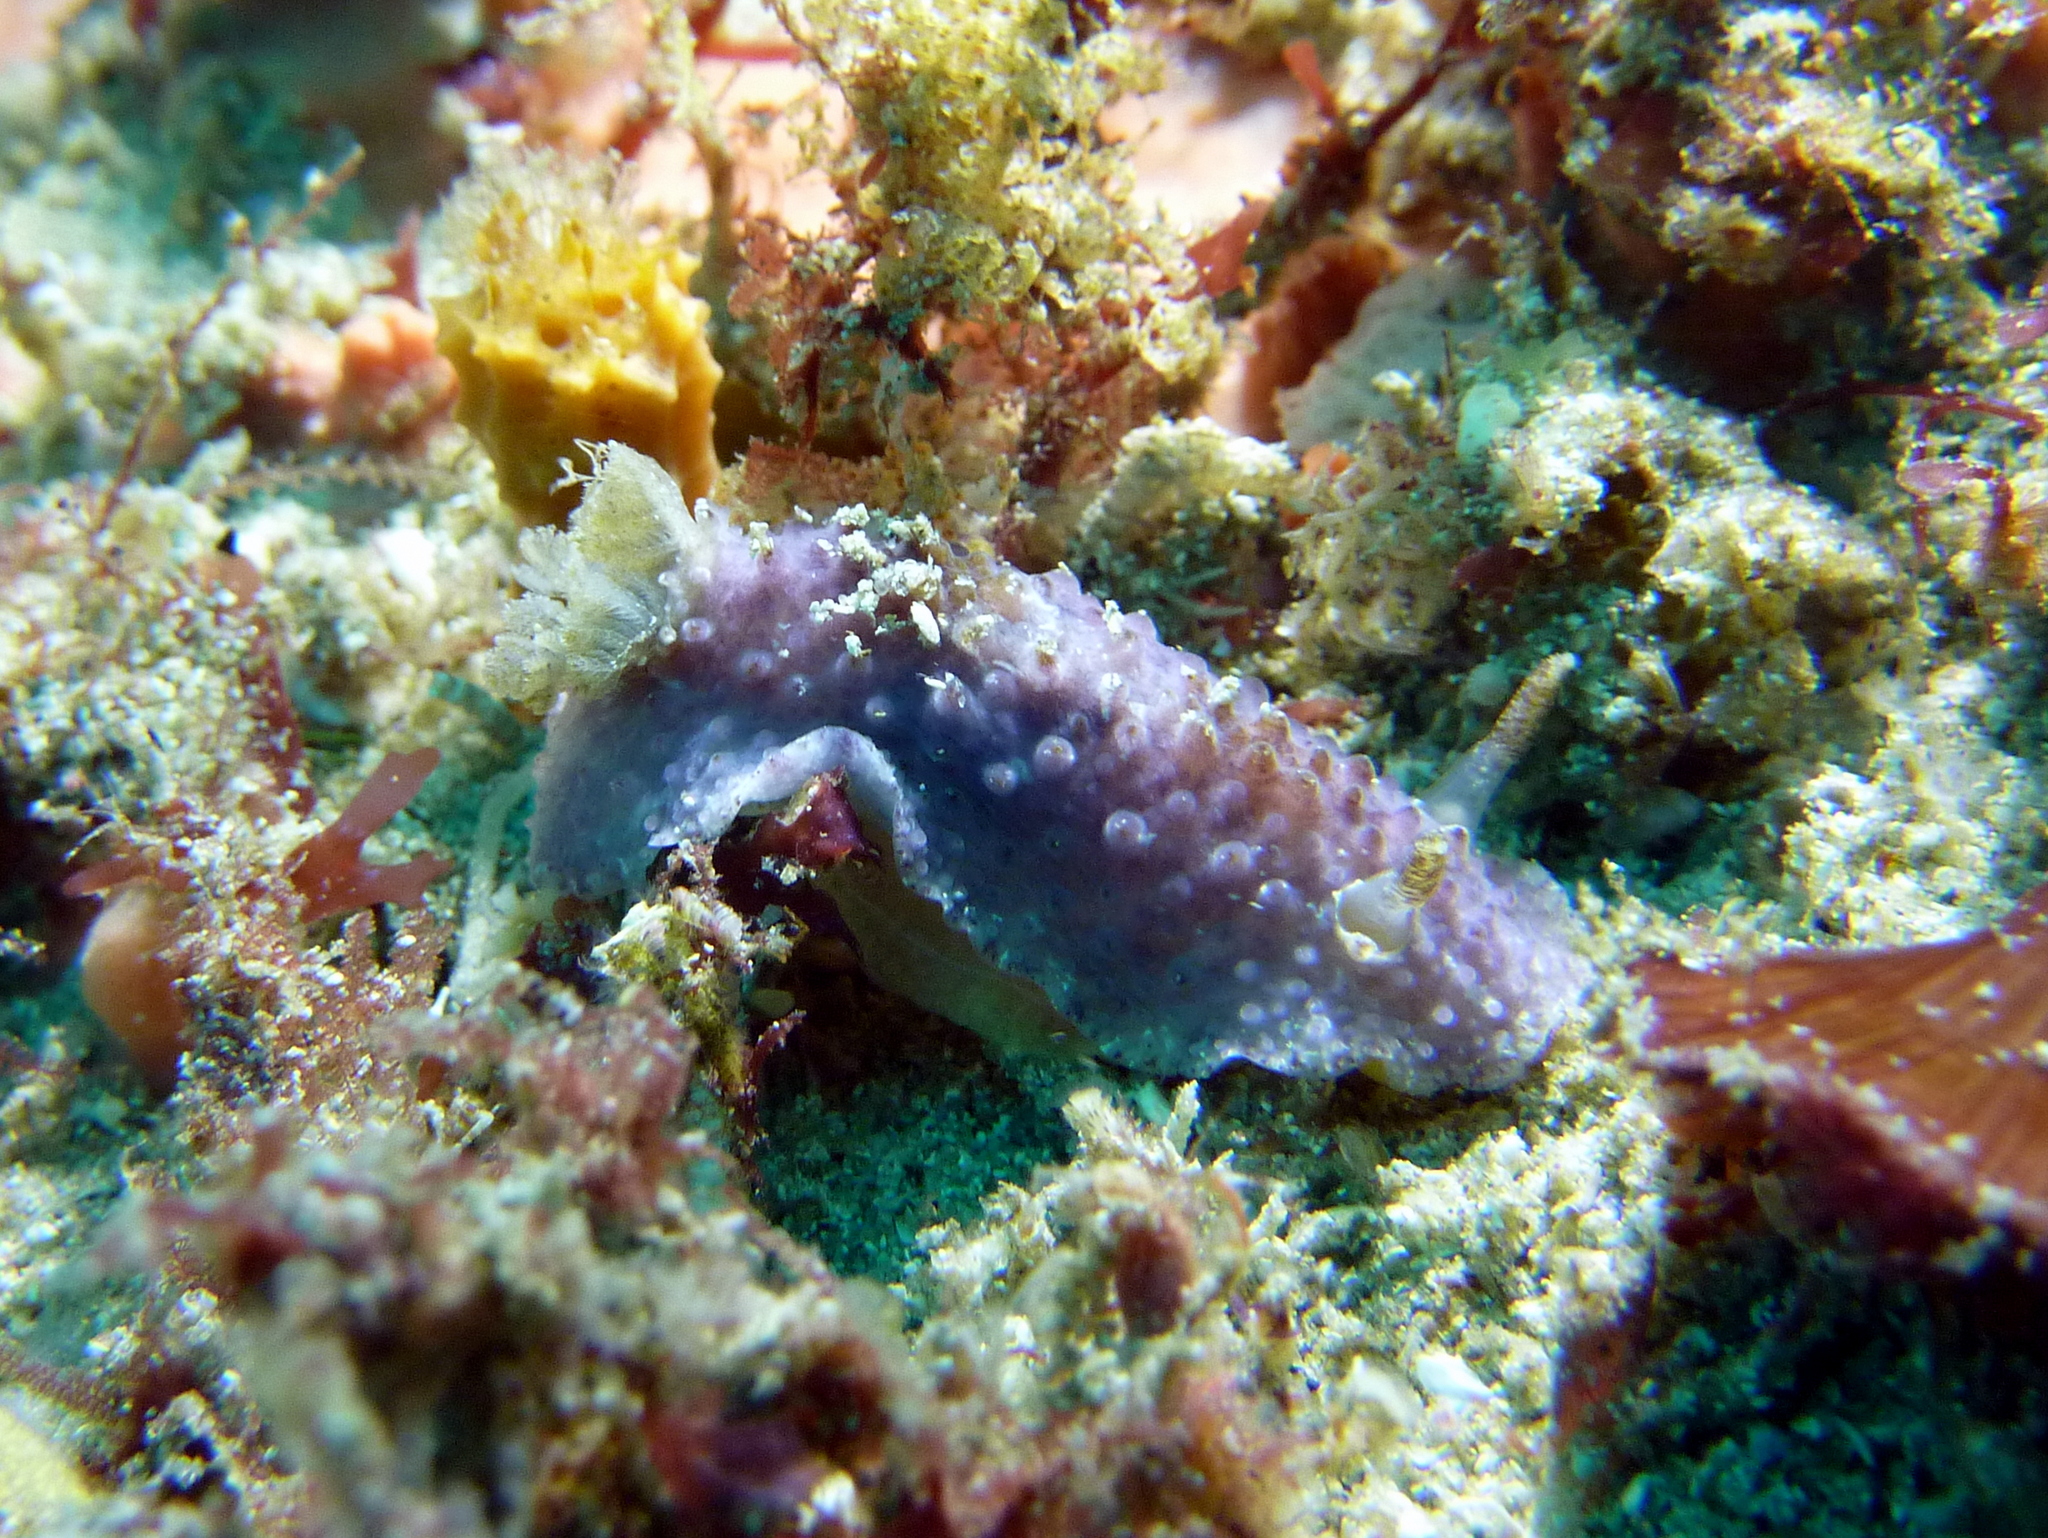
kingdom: Animalia
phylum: Mollusca
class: Gastropoda
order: Nudibranchia
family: Dorididae
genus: Doris
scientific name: Doris cameroni
